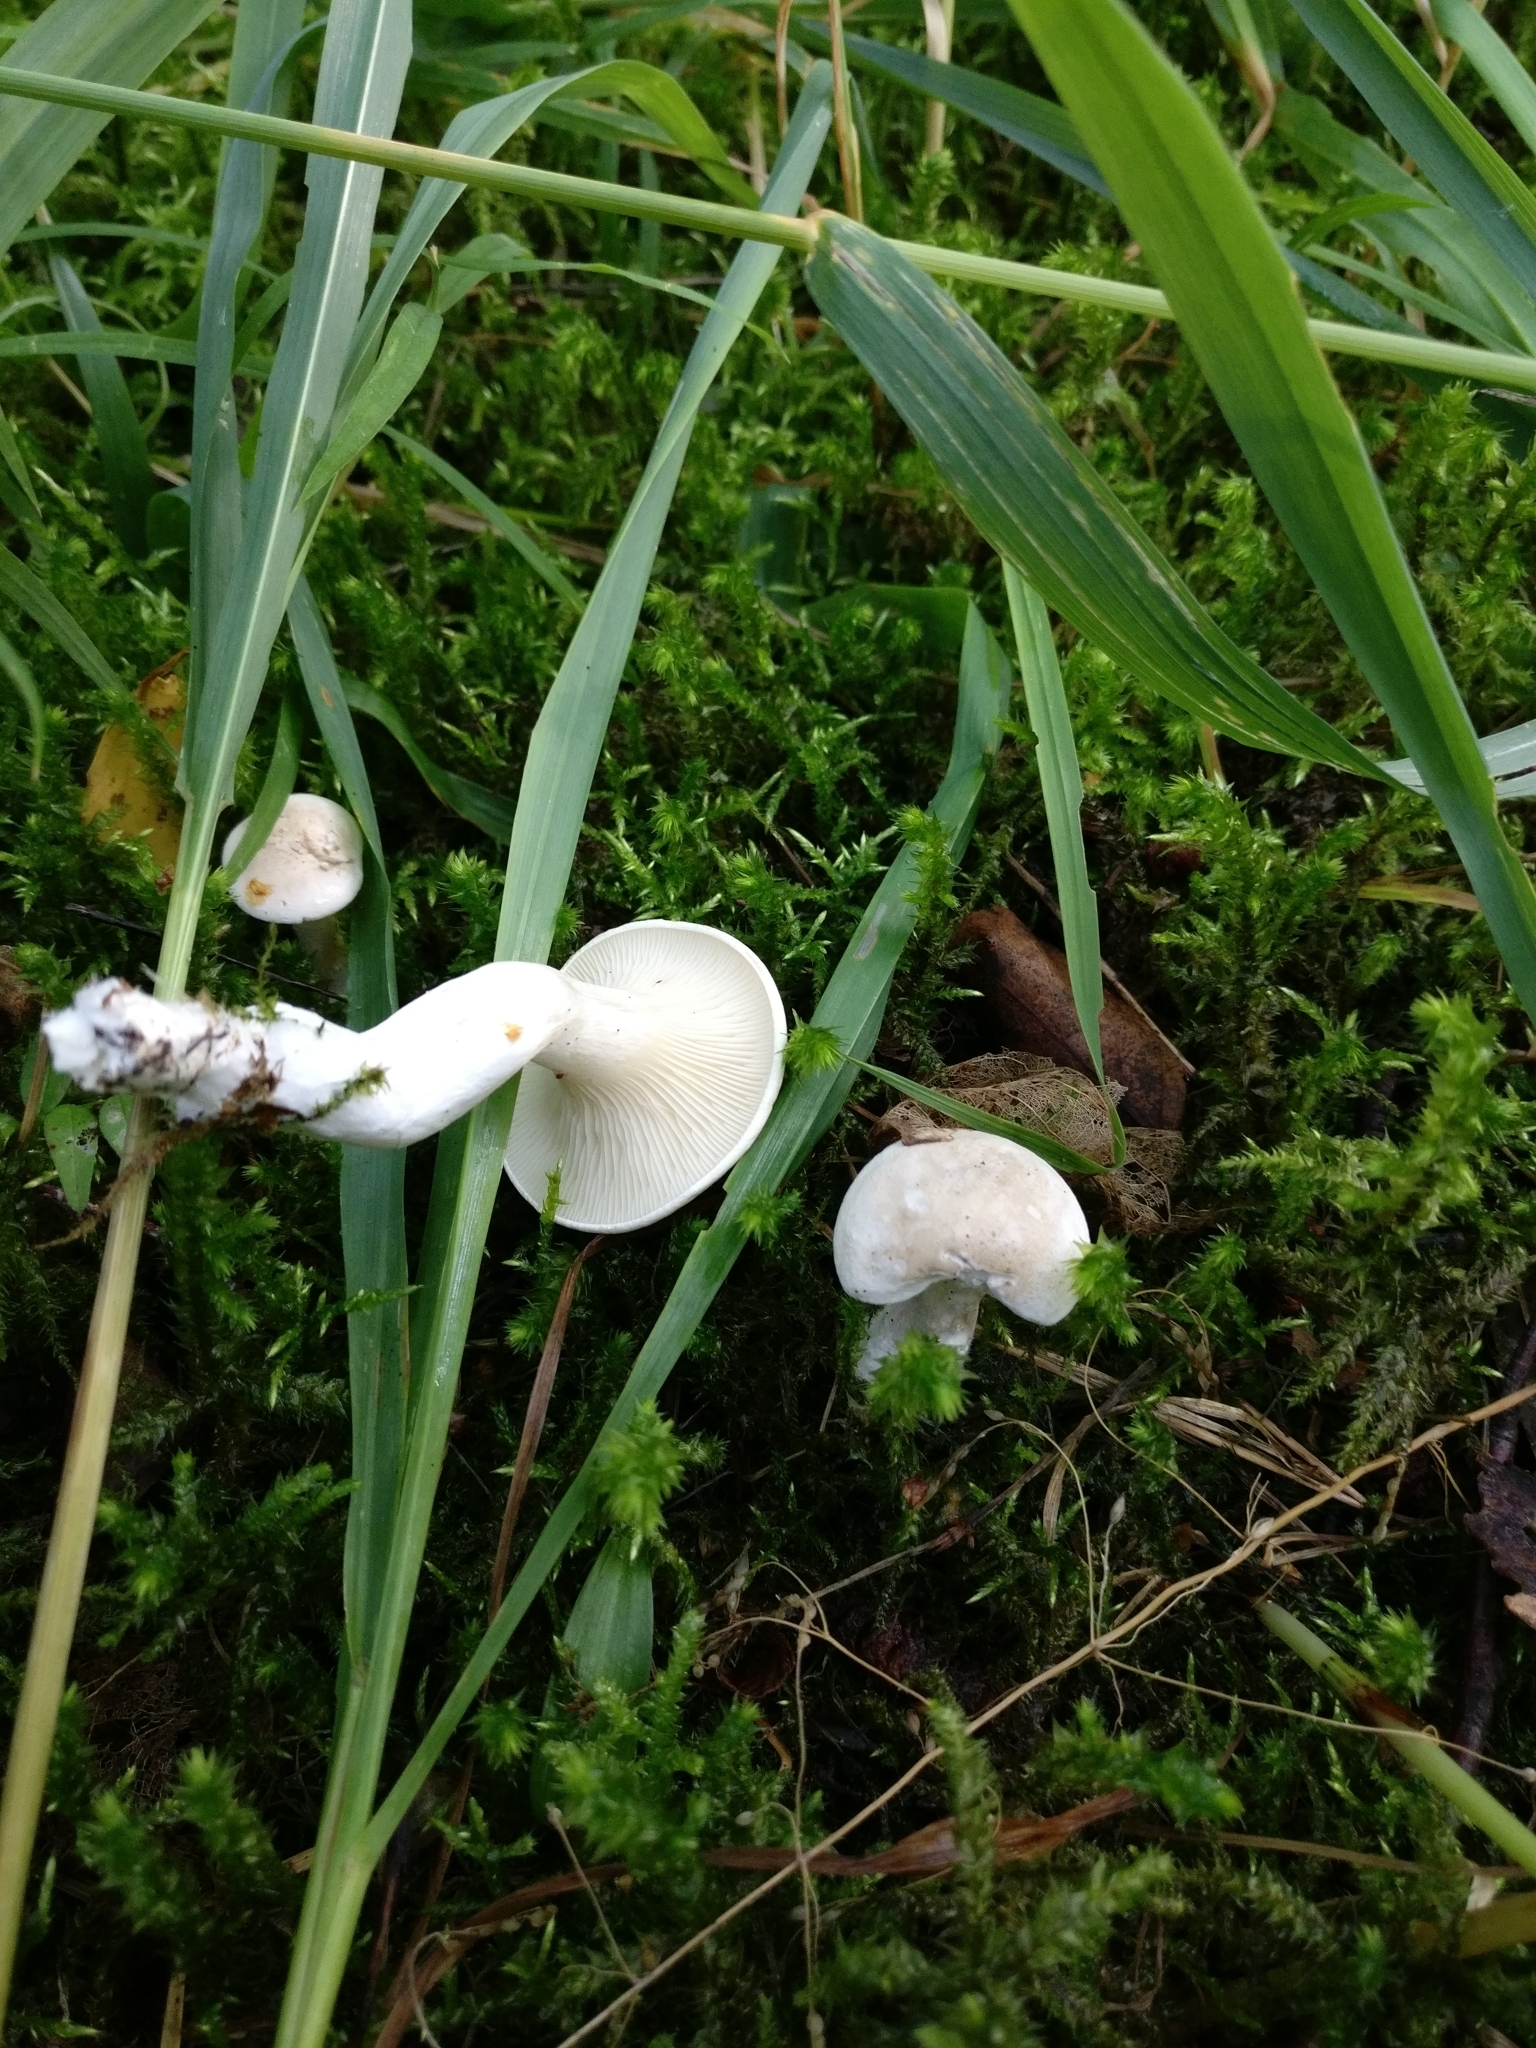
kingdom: Fungi
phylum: Basidiomycota
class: Agaricomycetes
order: Agaricales
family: Entolomataceae
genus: Clitopilus
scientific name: Clitopilus prunulus
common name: The miller
